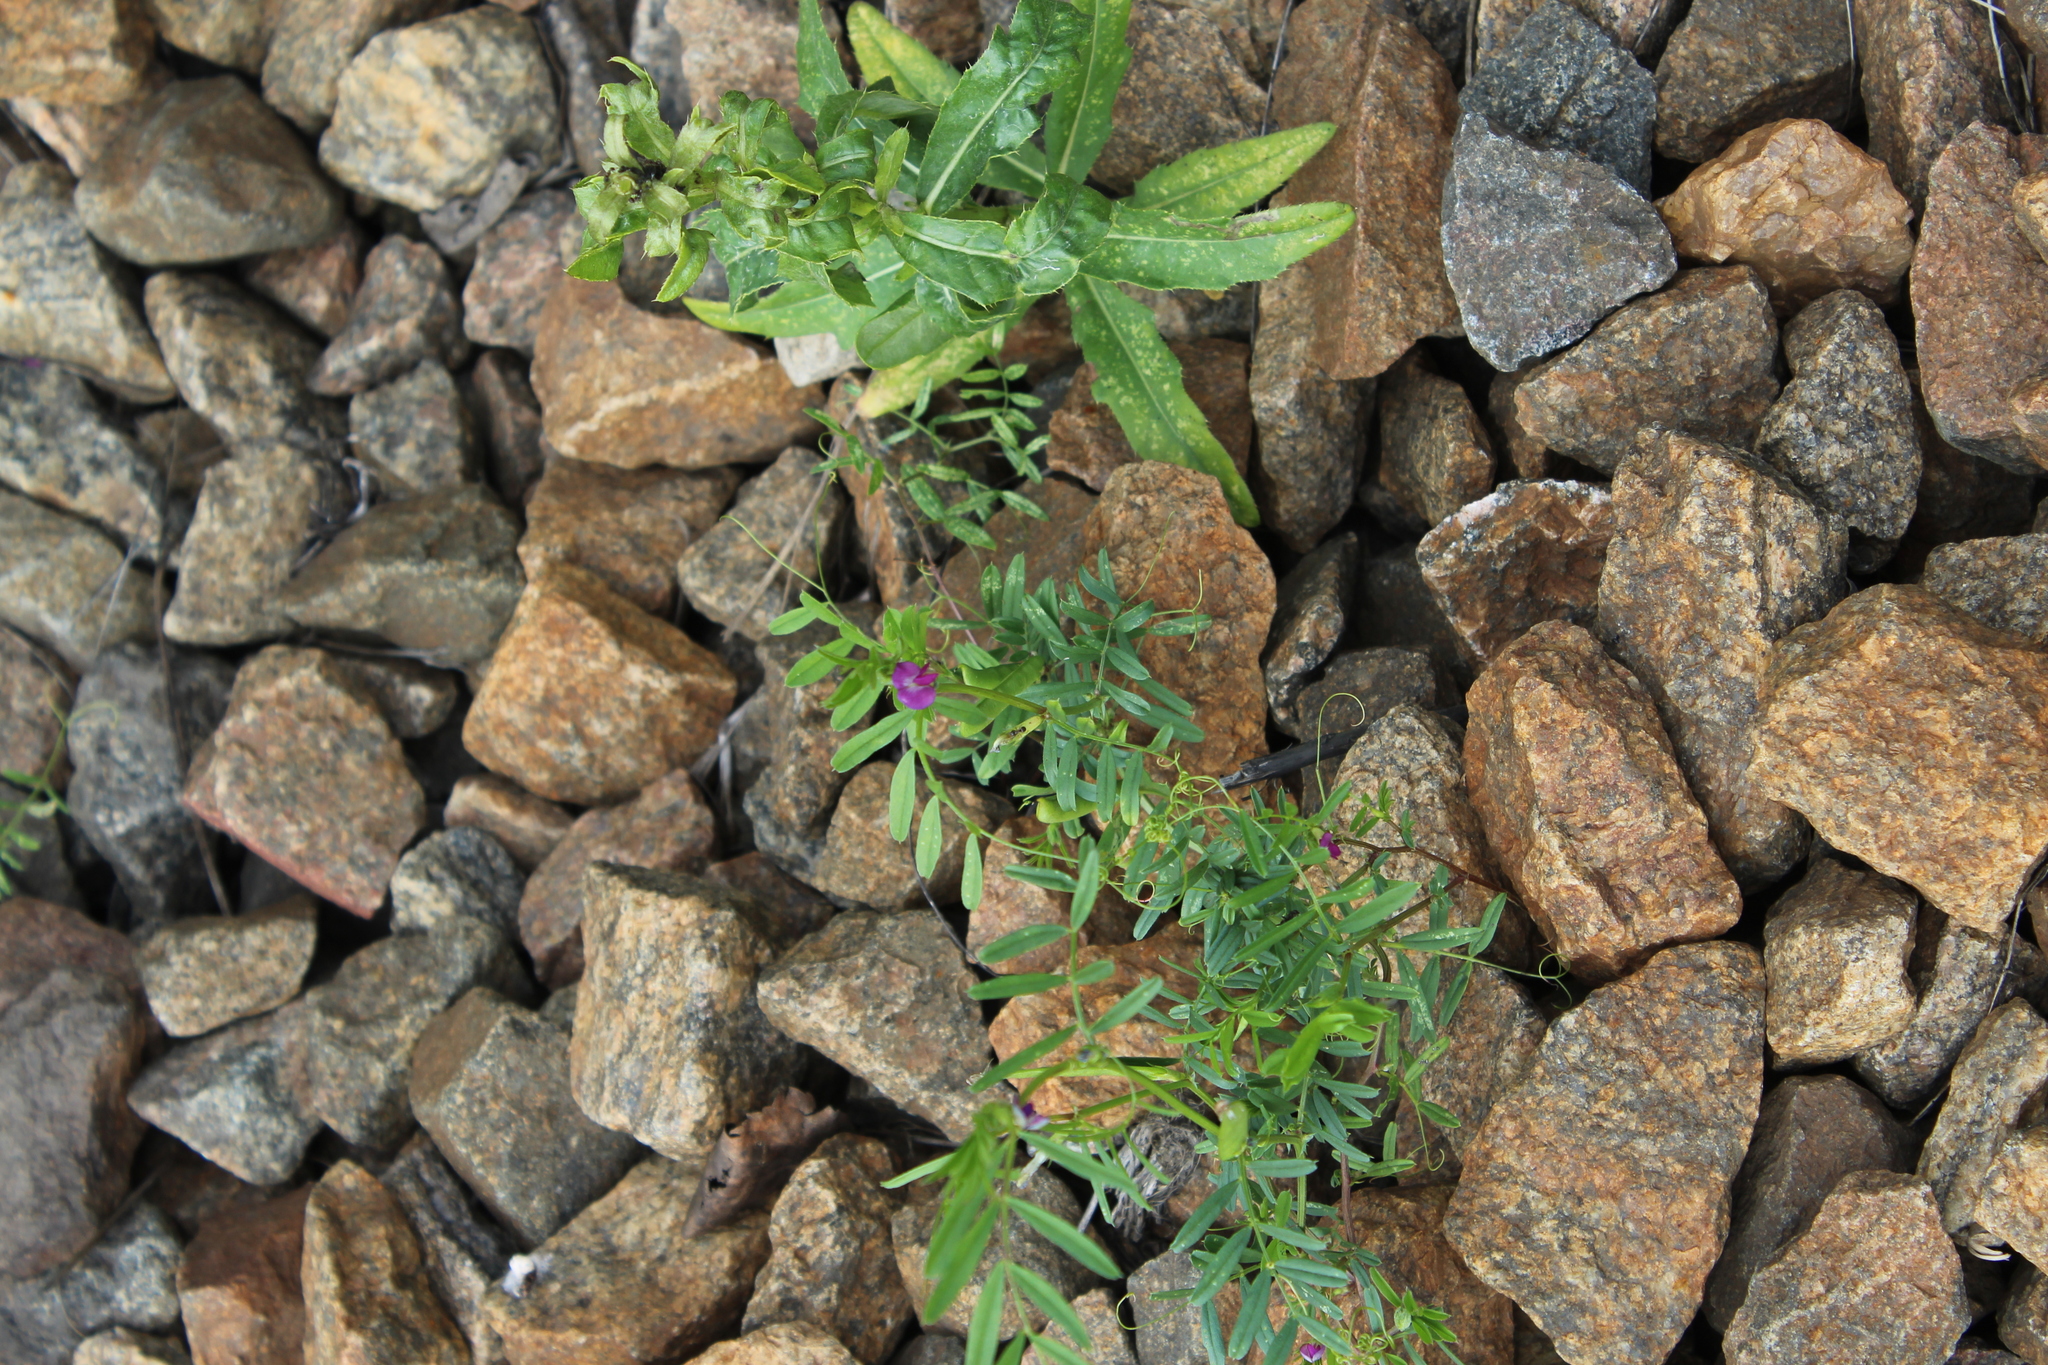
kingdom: Plantae
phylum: Tracheophyta
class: Magnoliopsida
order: Fabales
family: Fabaceae
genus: Vicia
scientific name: Vicia sativa
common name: Garden vetch
